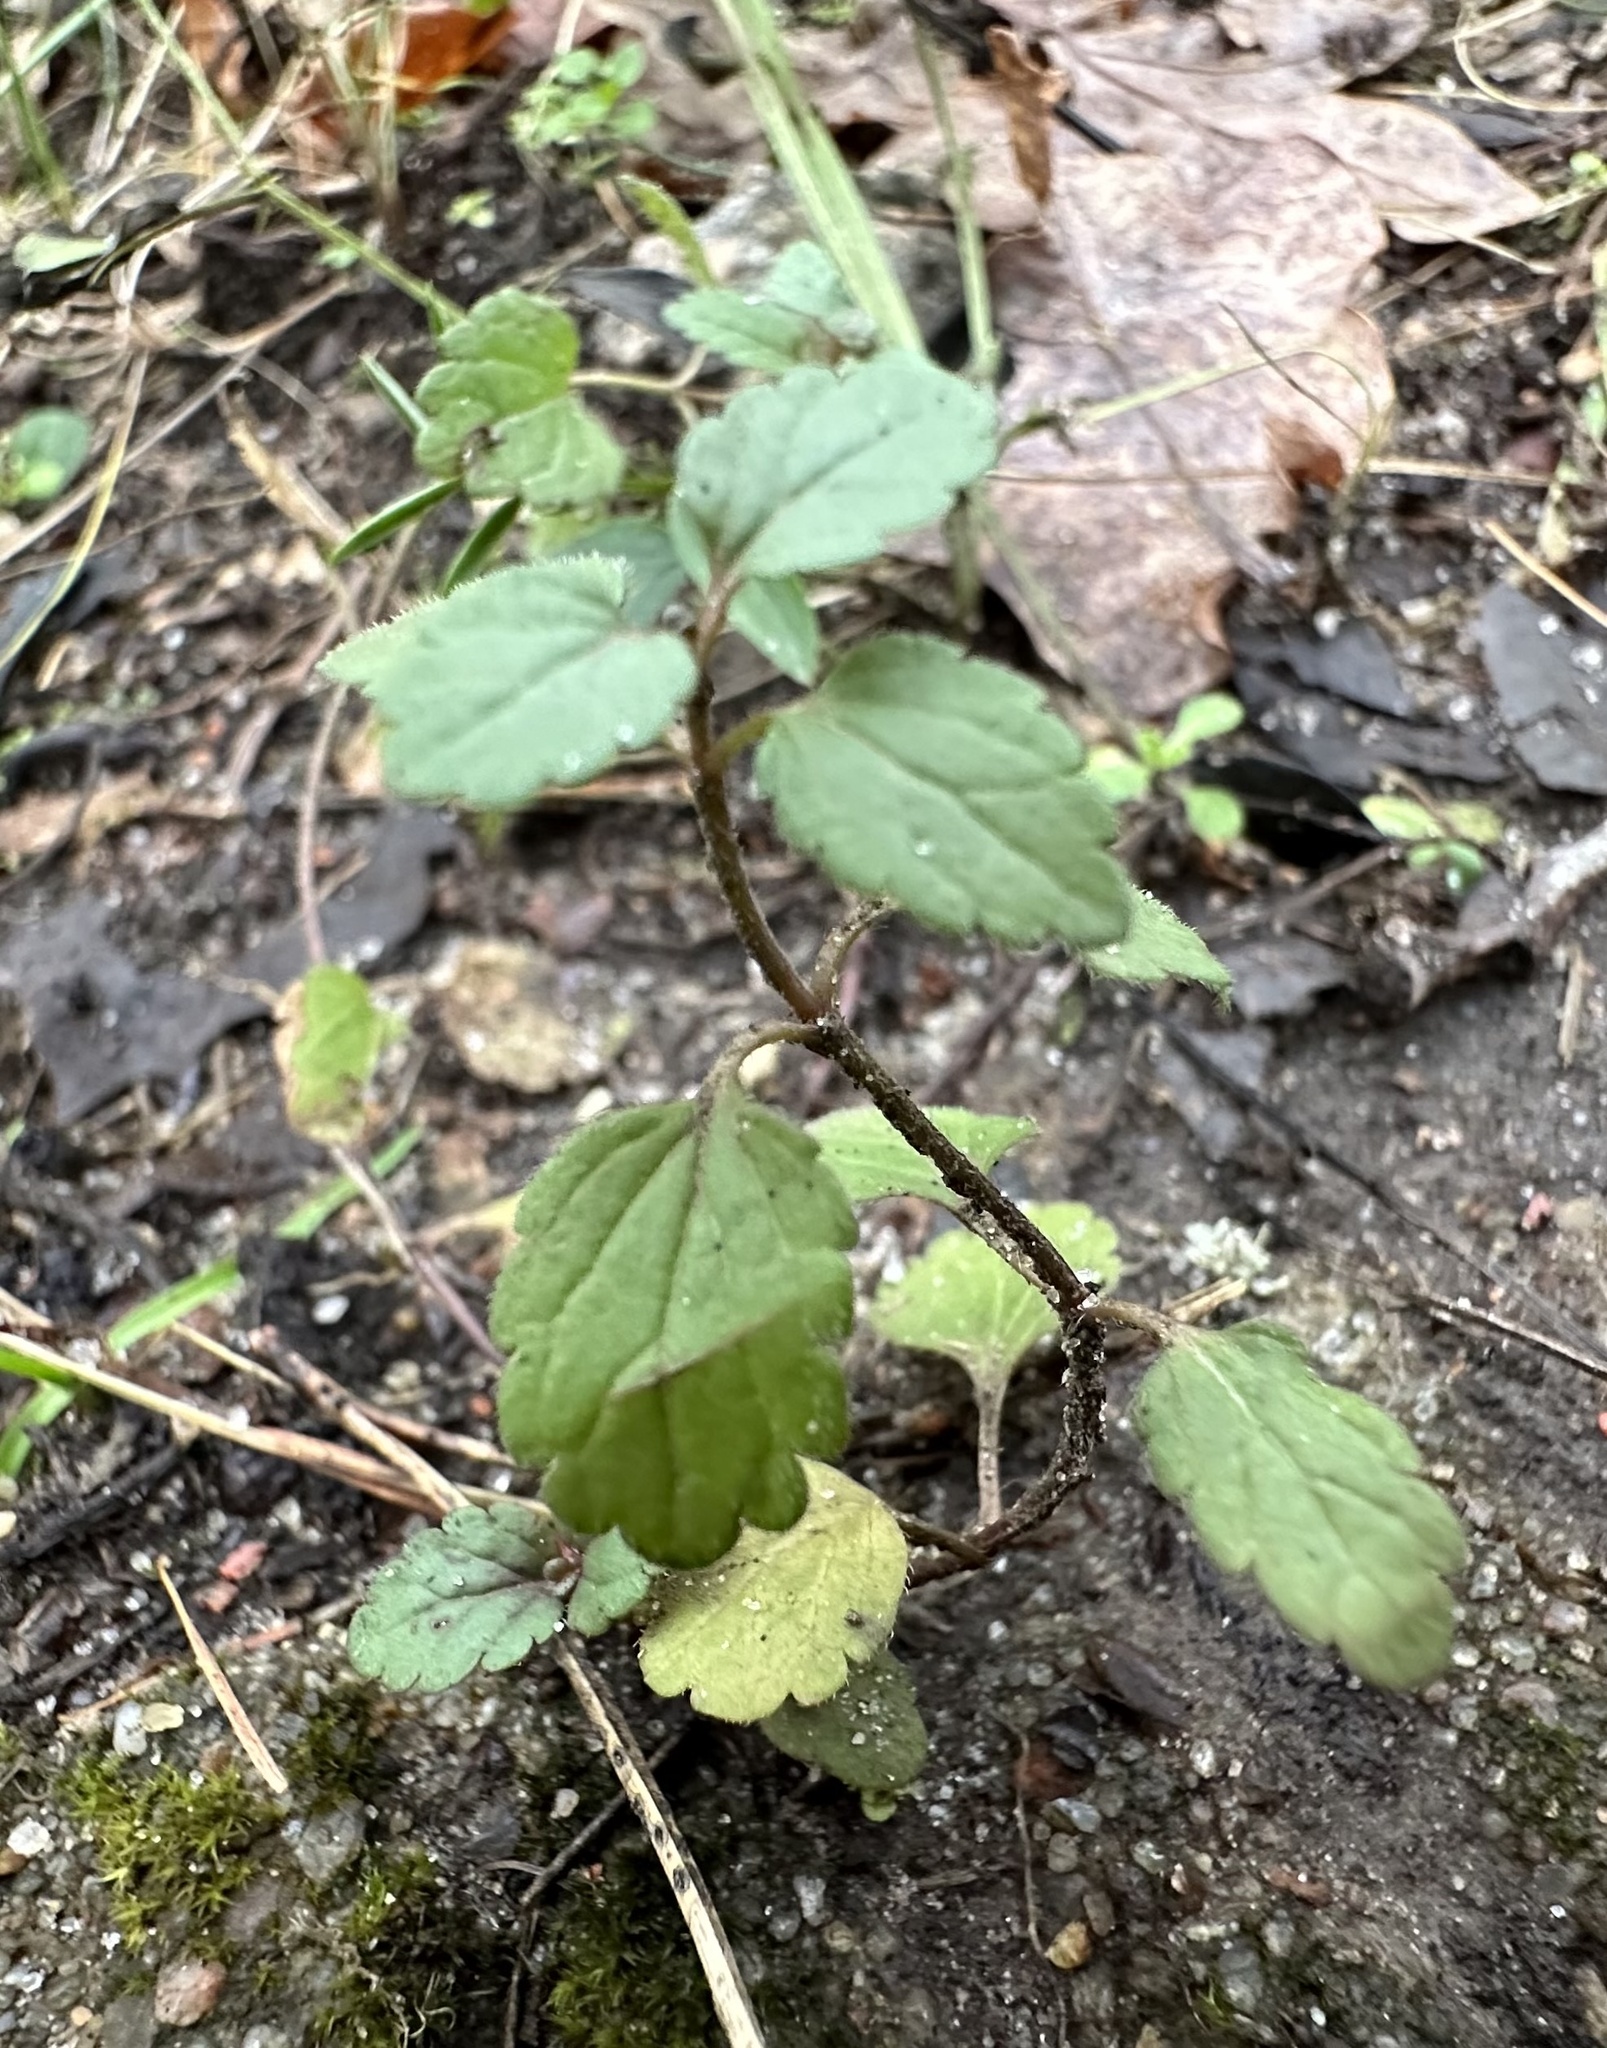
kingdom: Plantae
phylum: Tracheophyta
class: Magnoliopsida
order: Lamiales
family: Plantaginaceae
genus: Veronica
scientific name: Veronica chamaedrys
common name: Germander speedwell
